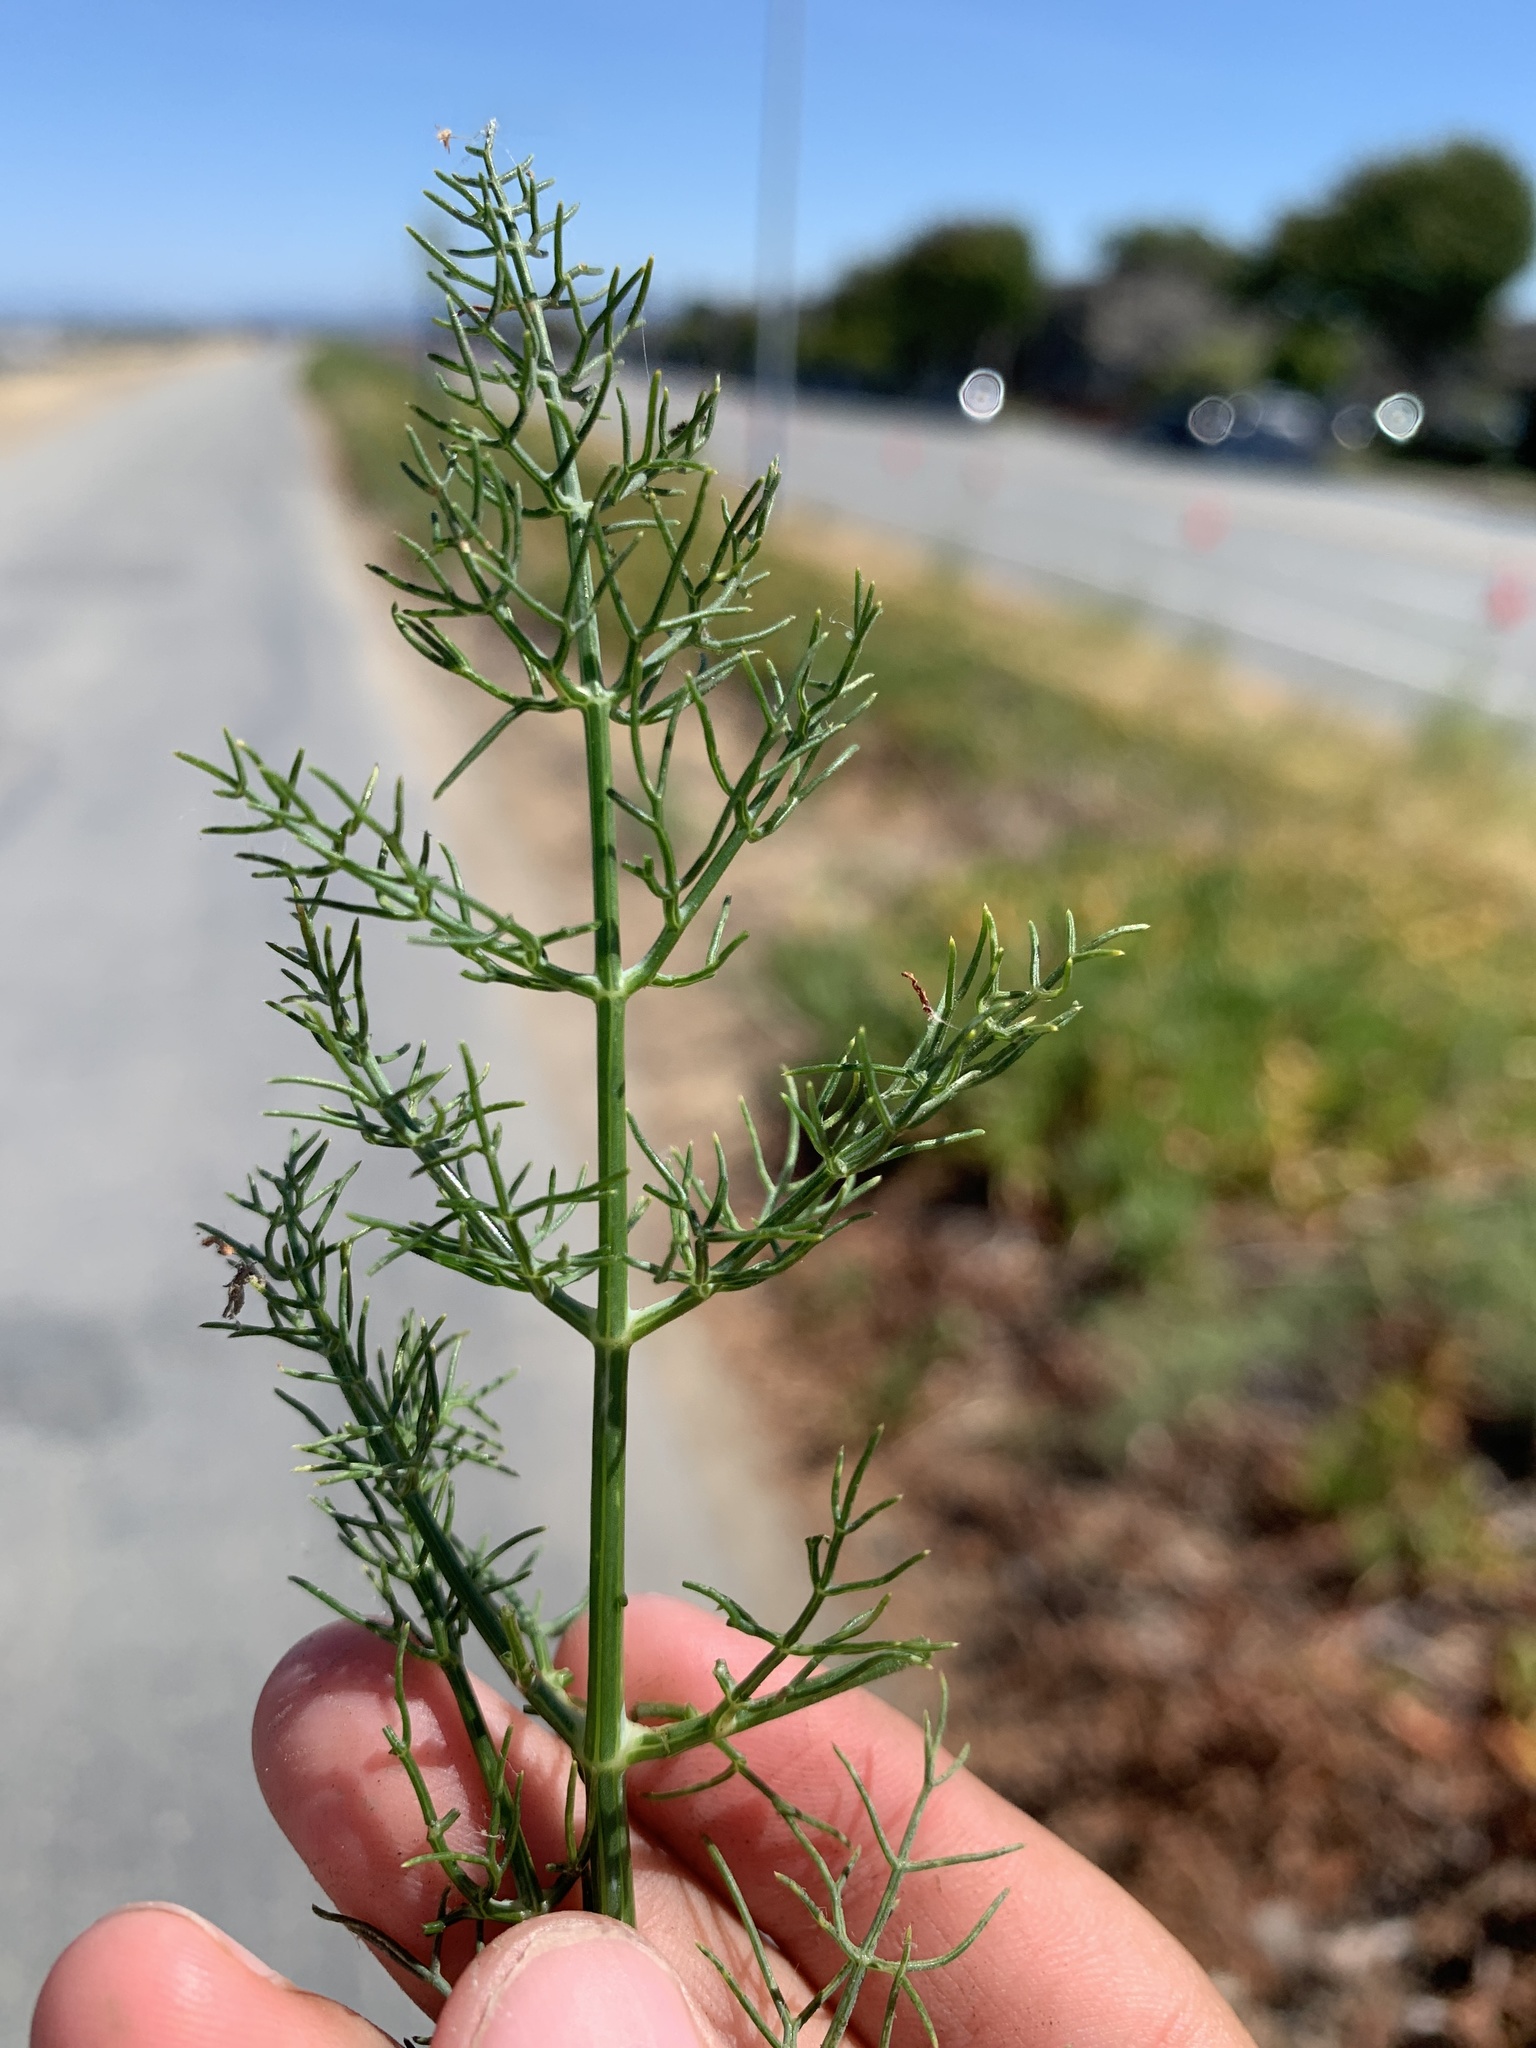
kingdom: Plantae
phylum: Tracheophyta
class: Magnoliopsida
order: Apiales
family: Apiaceae
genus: Foeniculum
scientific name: Foeniculum vulgare
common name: Fennel
